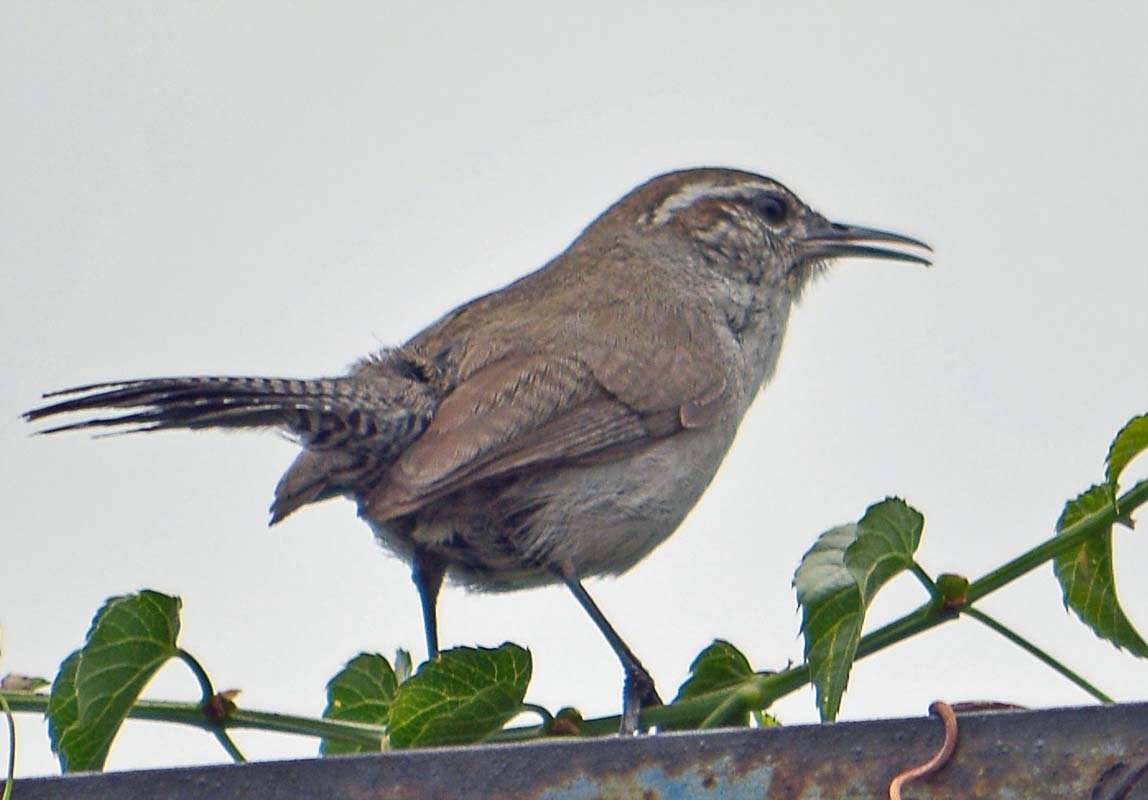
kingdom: Animalia
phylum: Chordata
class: Aves
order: Passeriformes
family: Troglodytidae
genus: Thryomanes
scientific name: Thryomanes bewickii
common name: Bewick's wren
